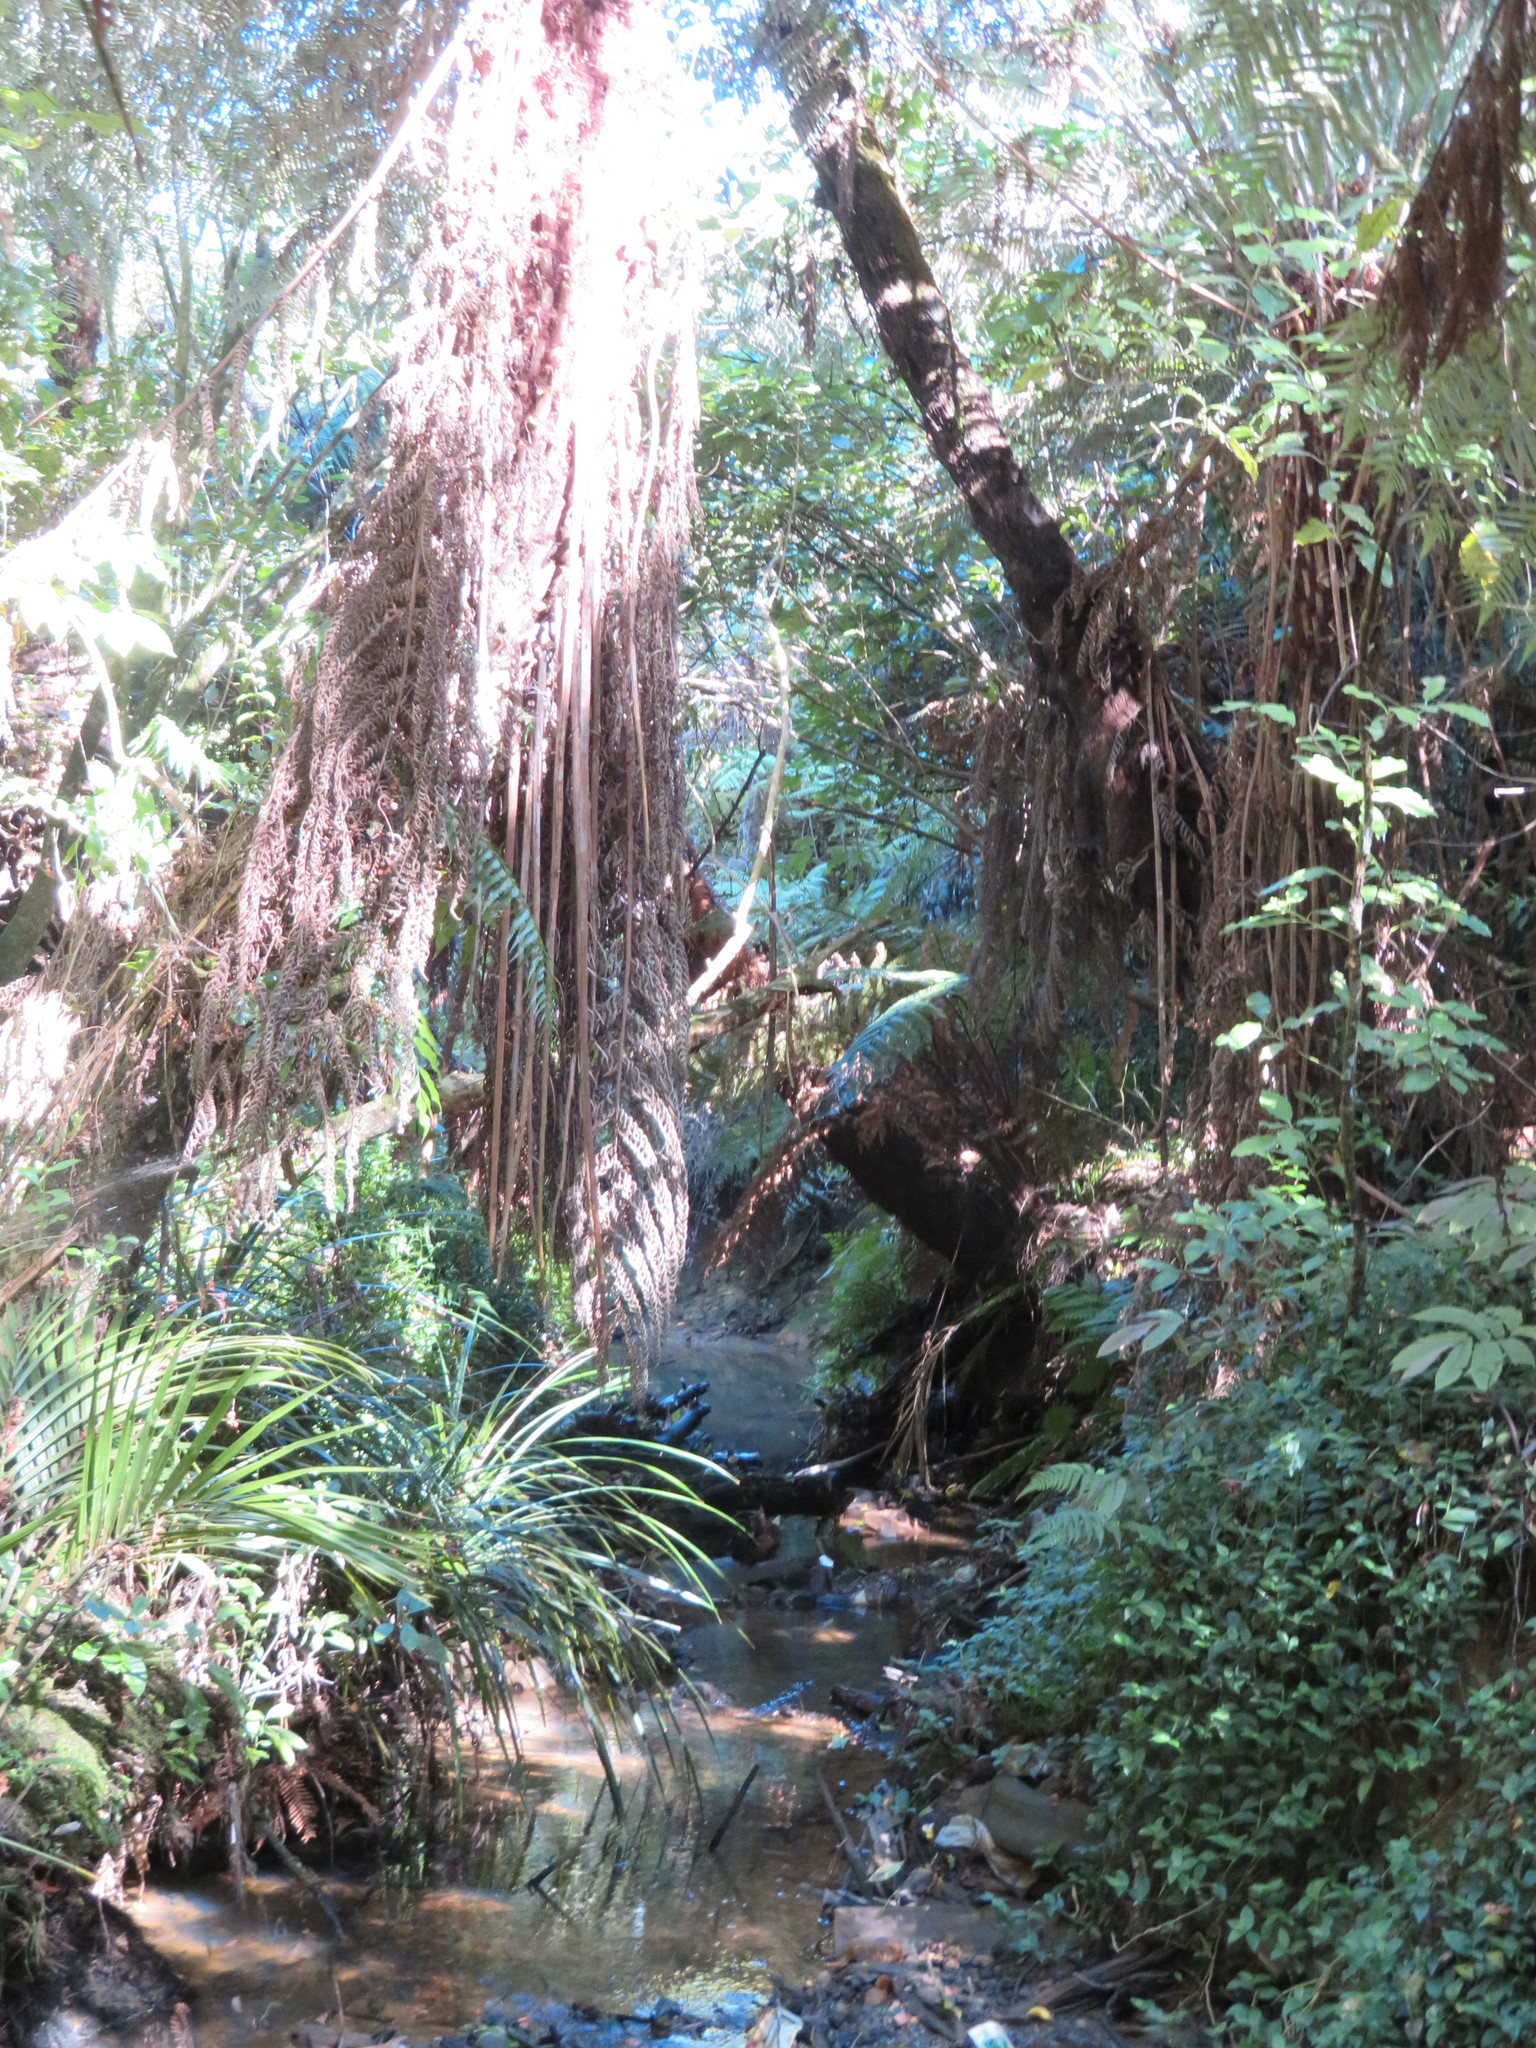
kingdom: Plantae
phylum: Tracheophyta
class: Magnoliopsida
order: Rosales
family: Urticaceae
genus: Elatostema
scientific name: Elatostema rugosum
